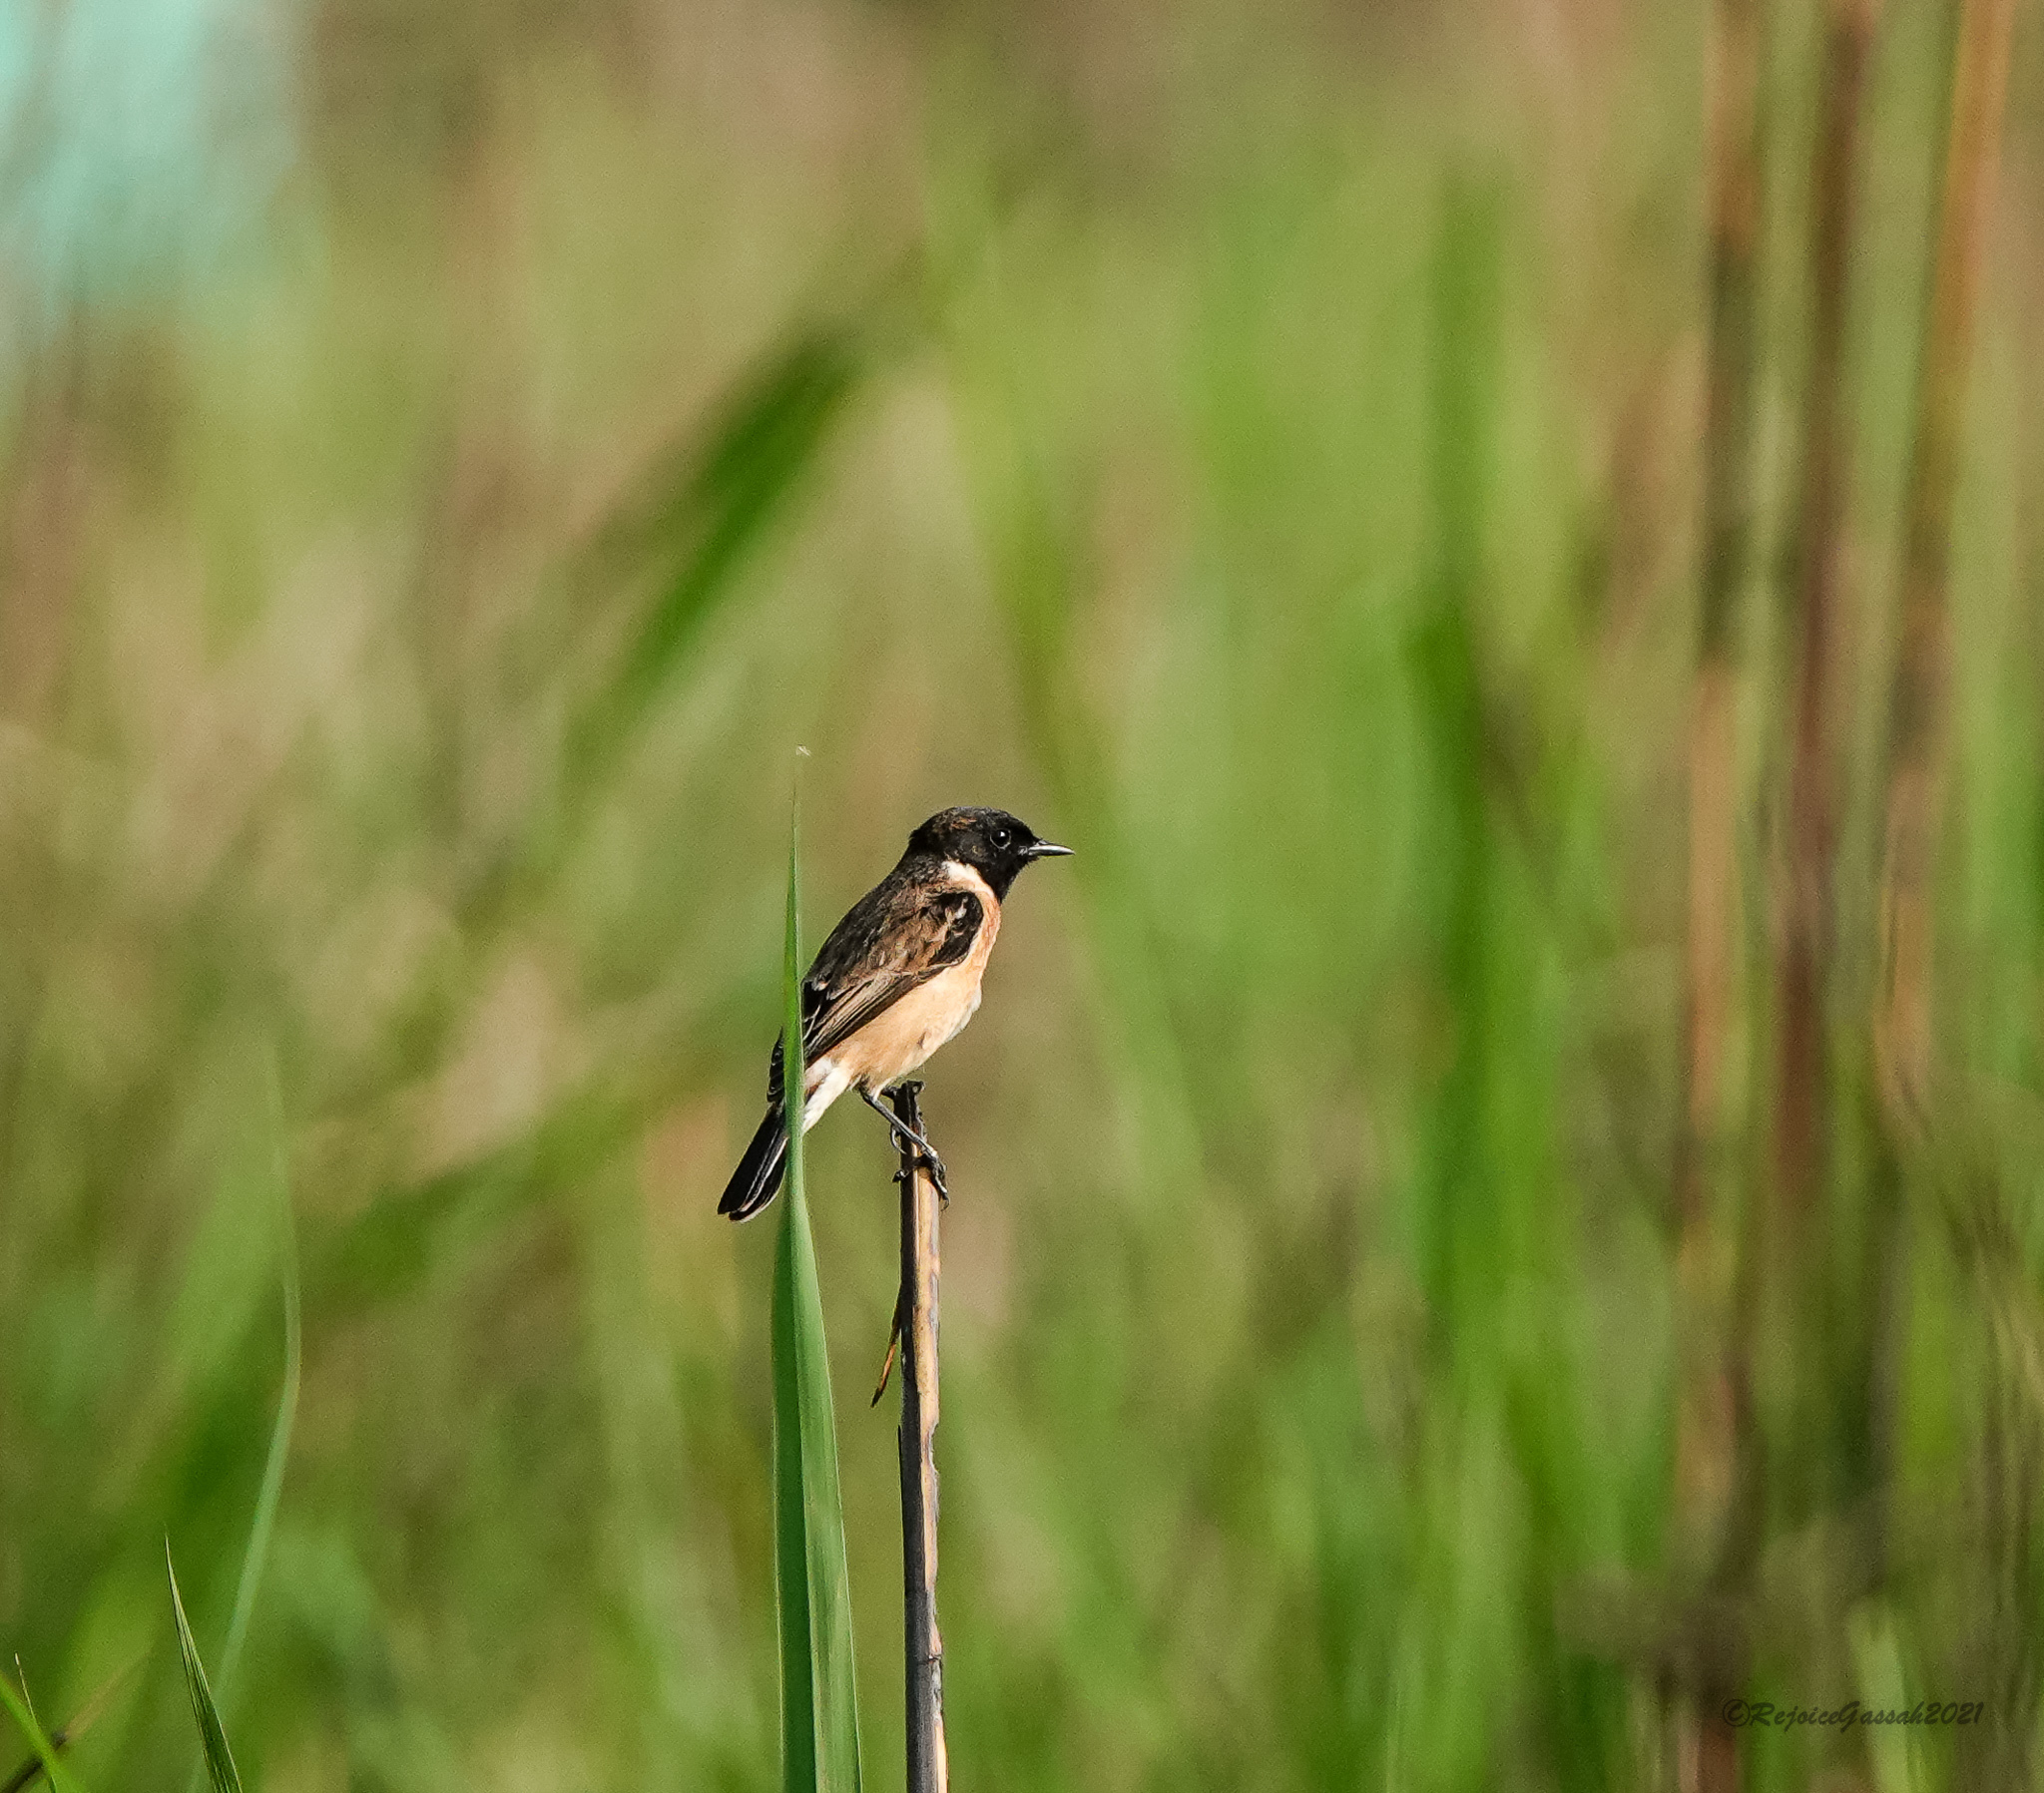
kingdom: Animalia
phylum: Chordata
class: Aves
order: Passeriformes
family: Muscicapidae
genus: Saxicola
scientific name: Saxicola maurus
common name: Siberian stonechat
